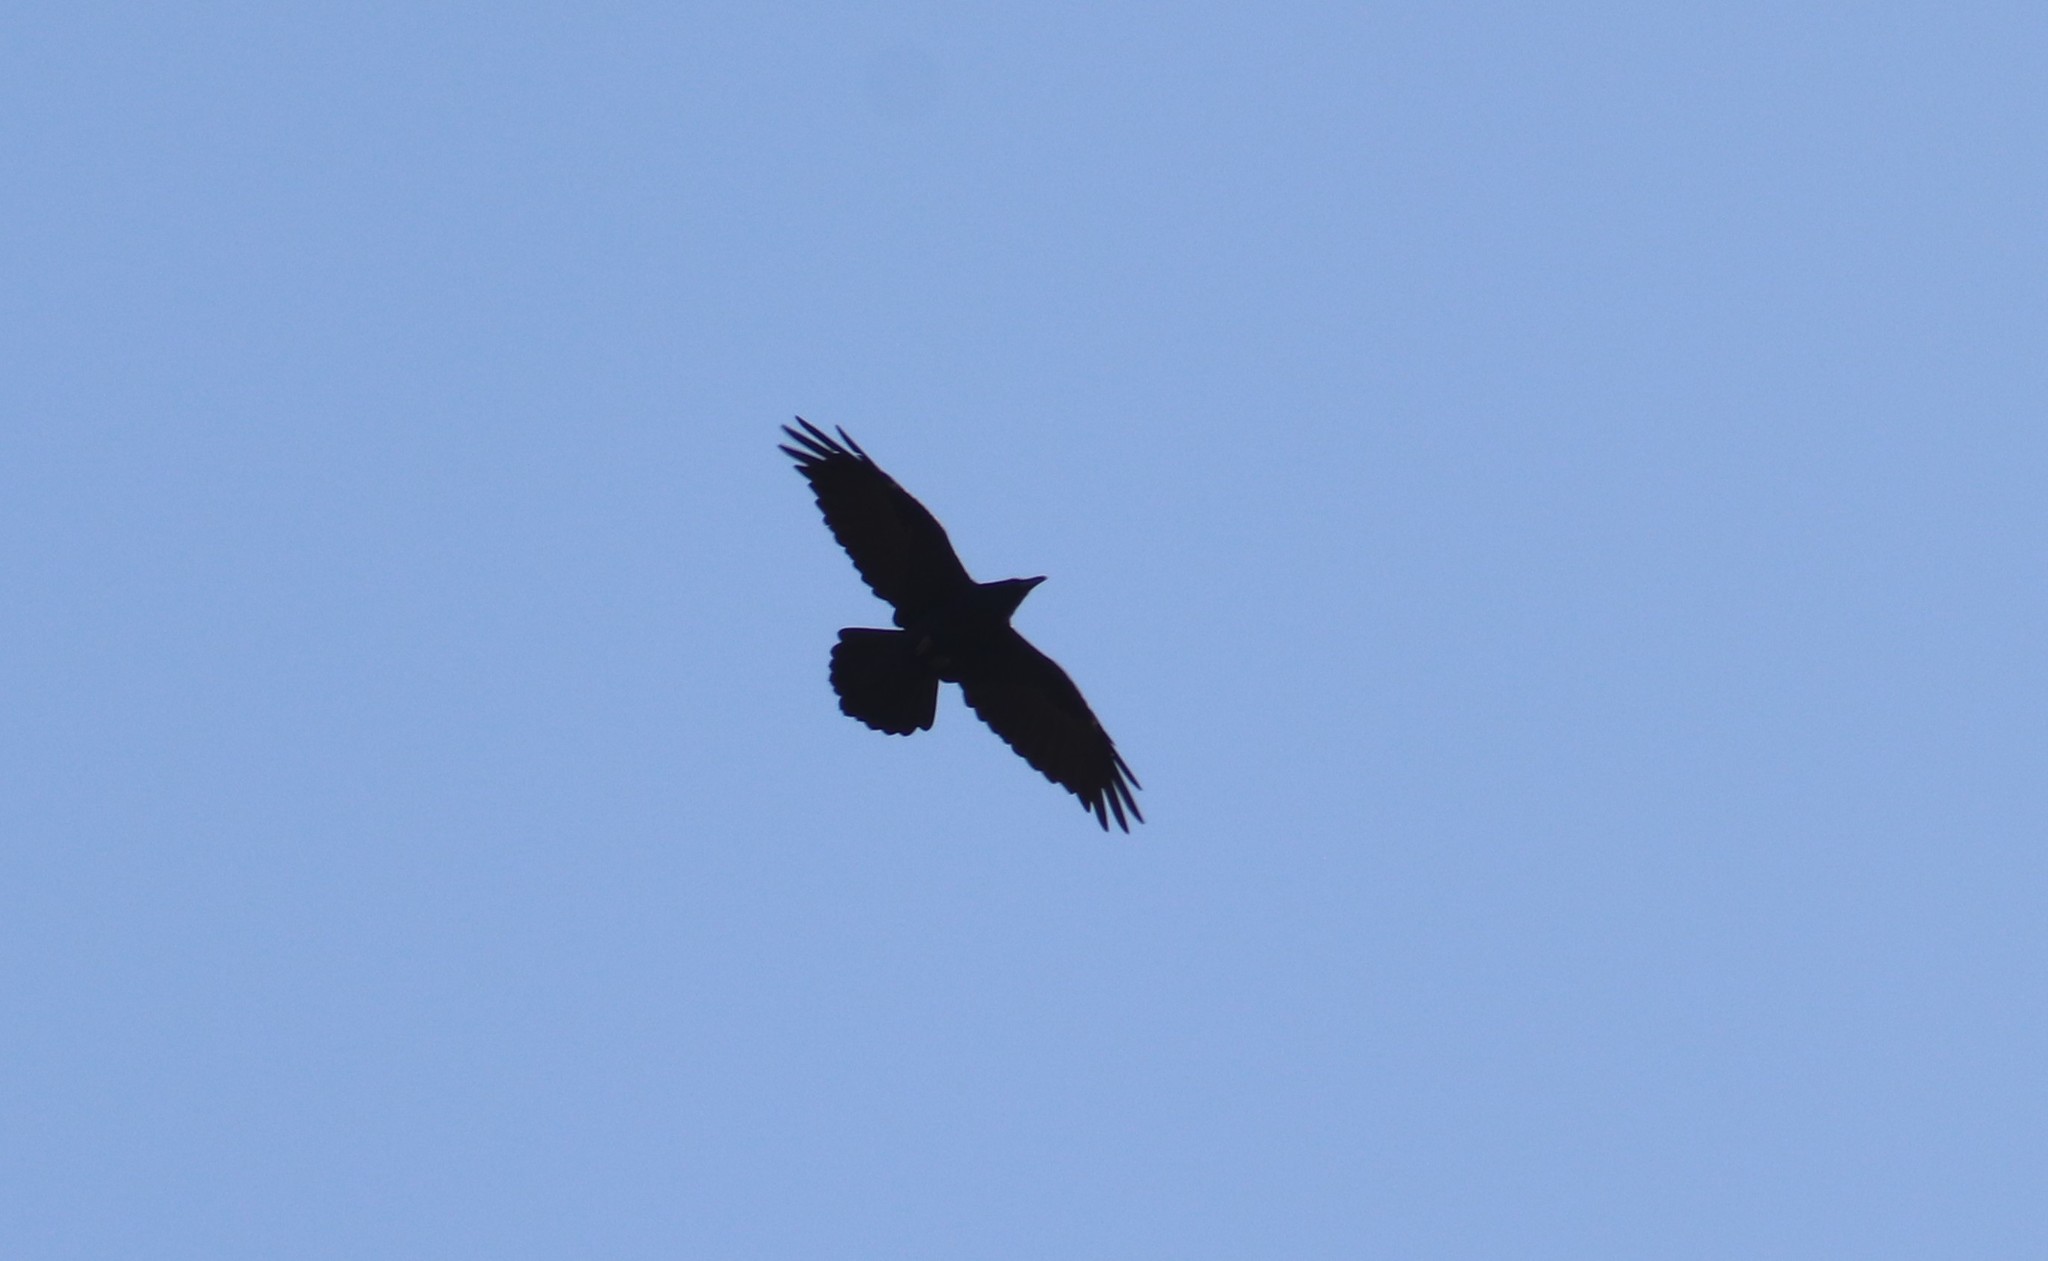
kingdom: Animalia
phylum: Chordata
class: Aves
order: Passeriformes
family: Corvidae
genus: Corvus
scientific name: Corvus corax
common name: Common raven
